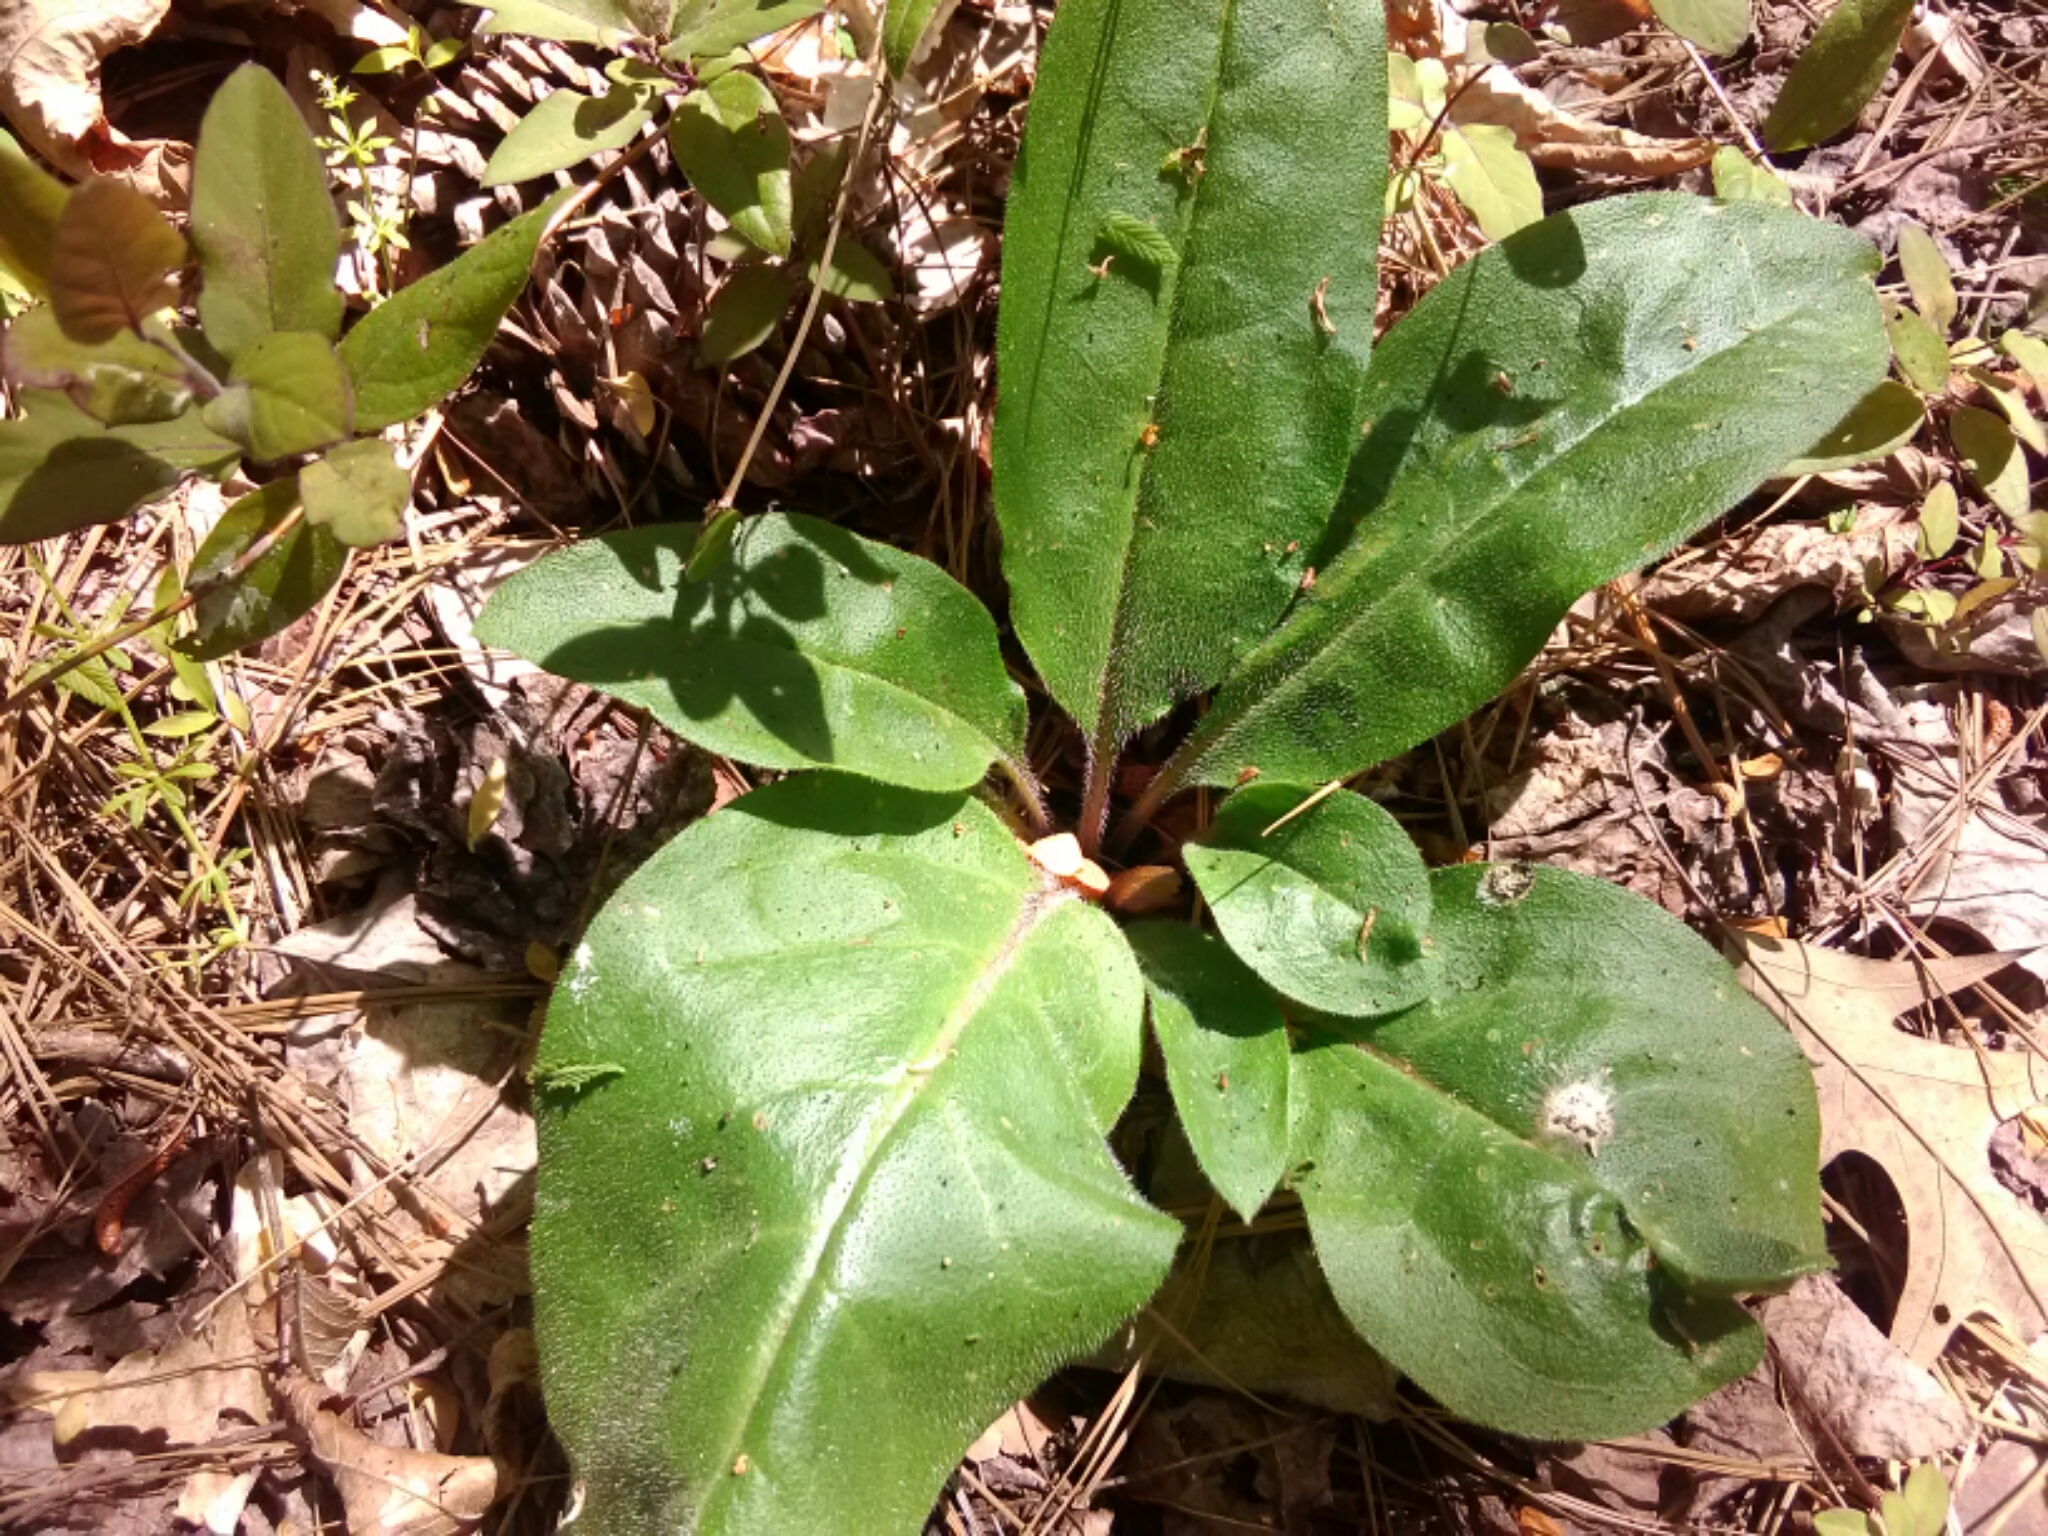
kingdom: Plantae
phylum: Tracheophyta
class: Magnoliopsida
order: Boraginales
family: Boraginaceae
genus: Andersonglossum
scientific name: Andersonglossum virginianum
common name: Wild comfrey
